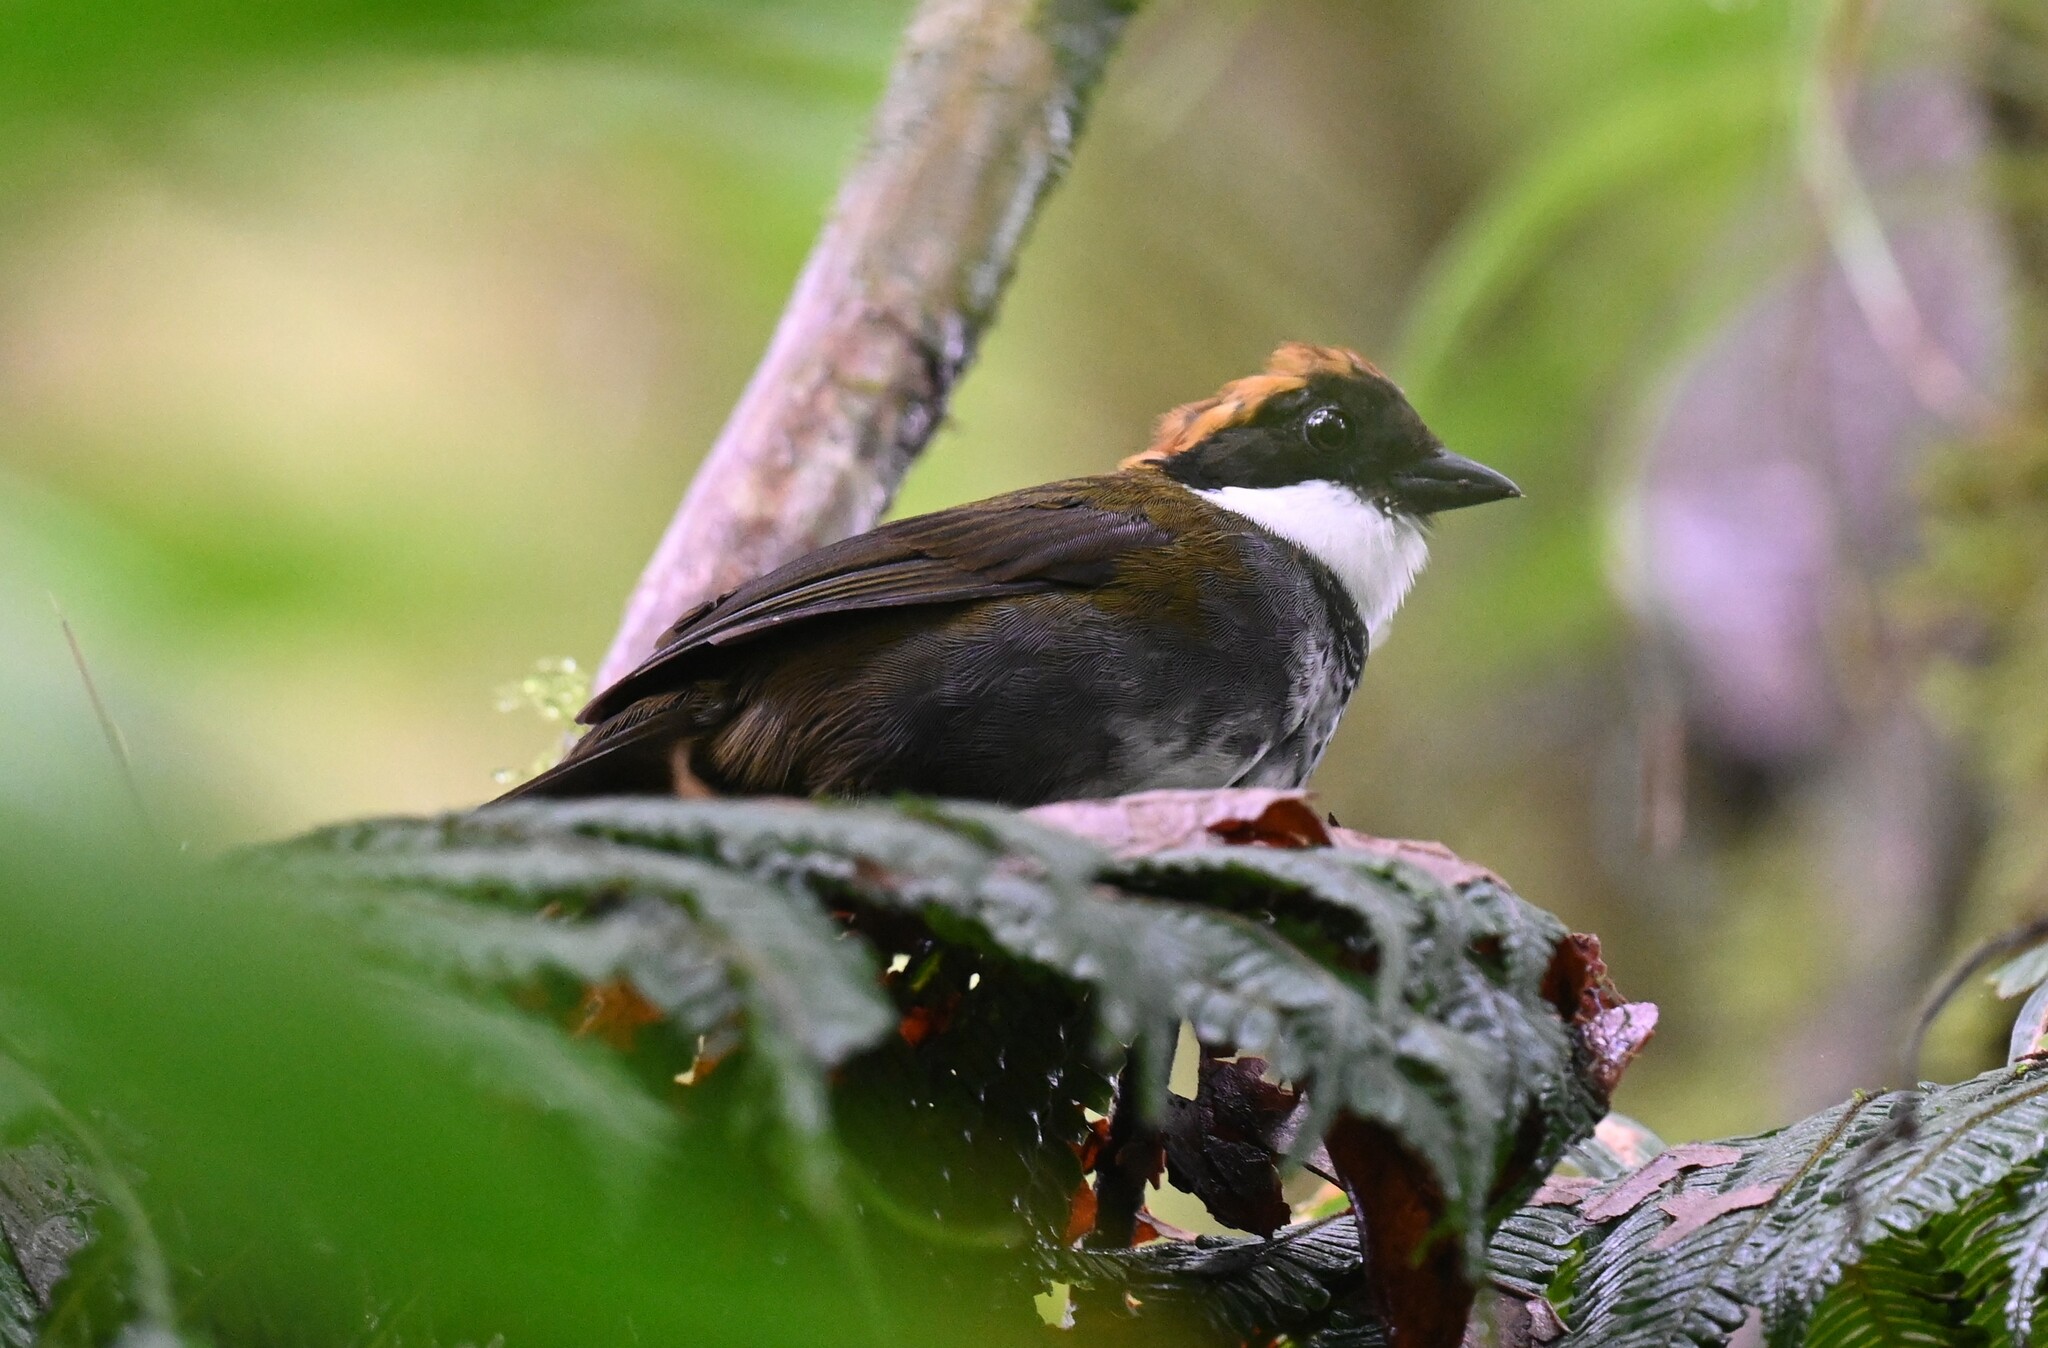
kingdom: Animalia
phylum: Chordata
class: Aves
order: Passeriformes
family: Passerellidae
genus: Arremon
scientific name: Arremon brunneinucha
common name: Chestnut-capped brushfinch
